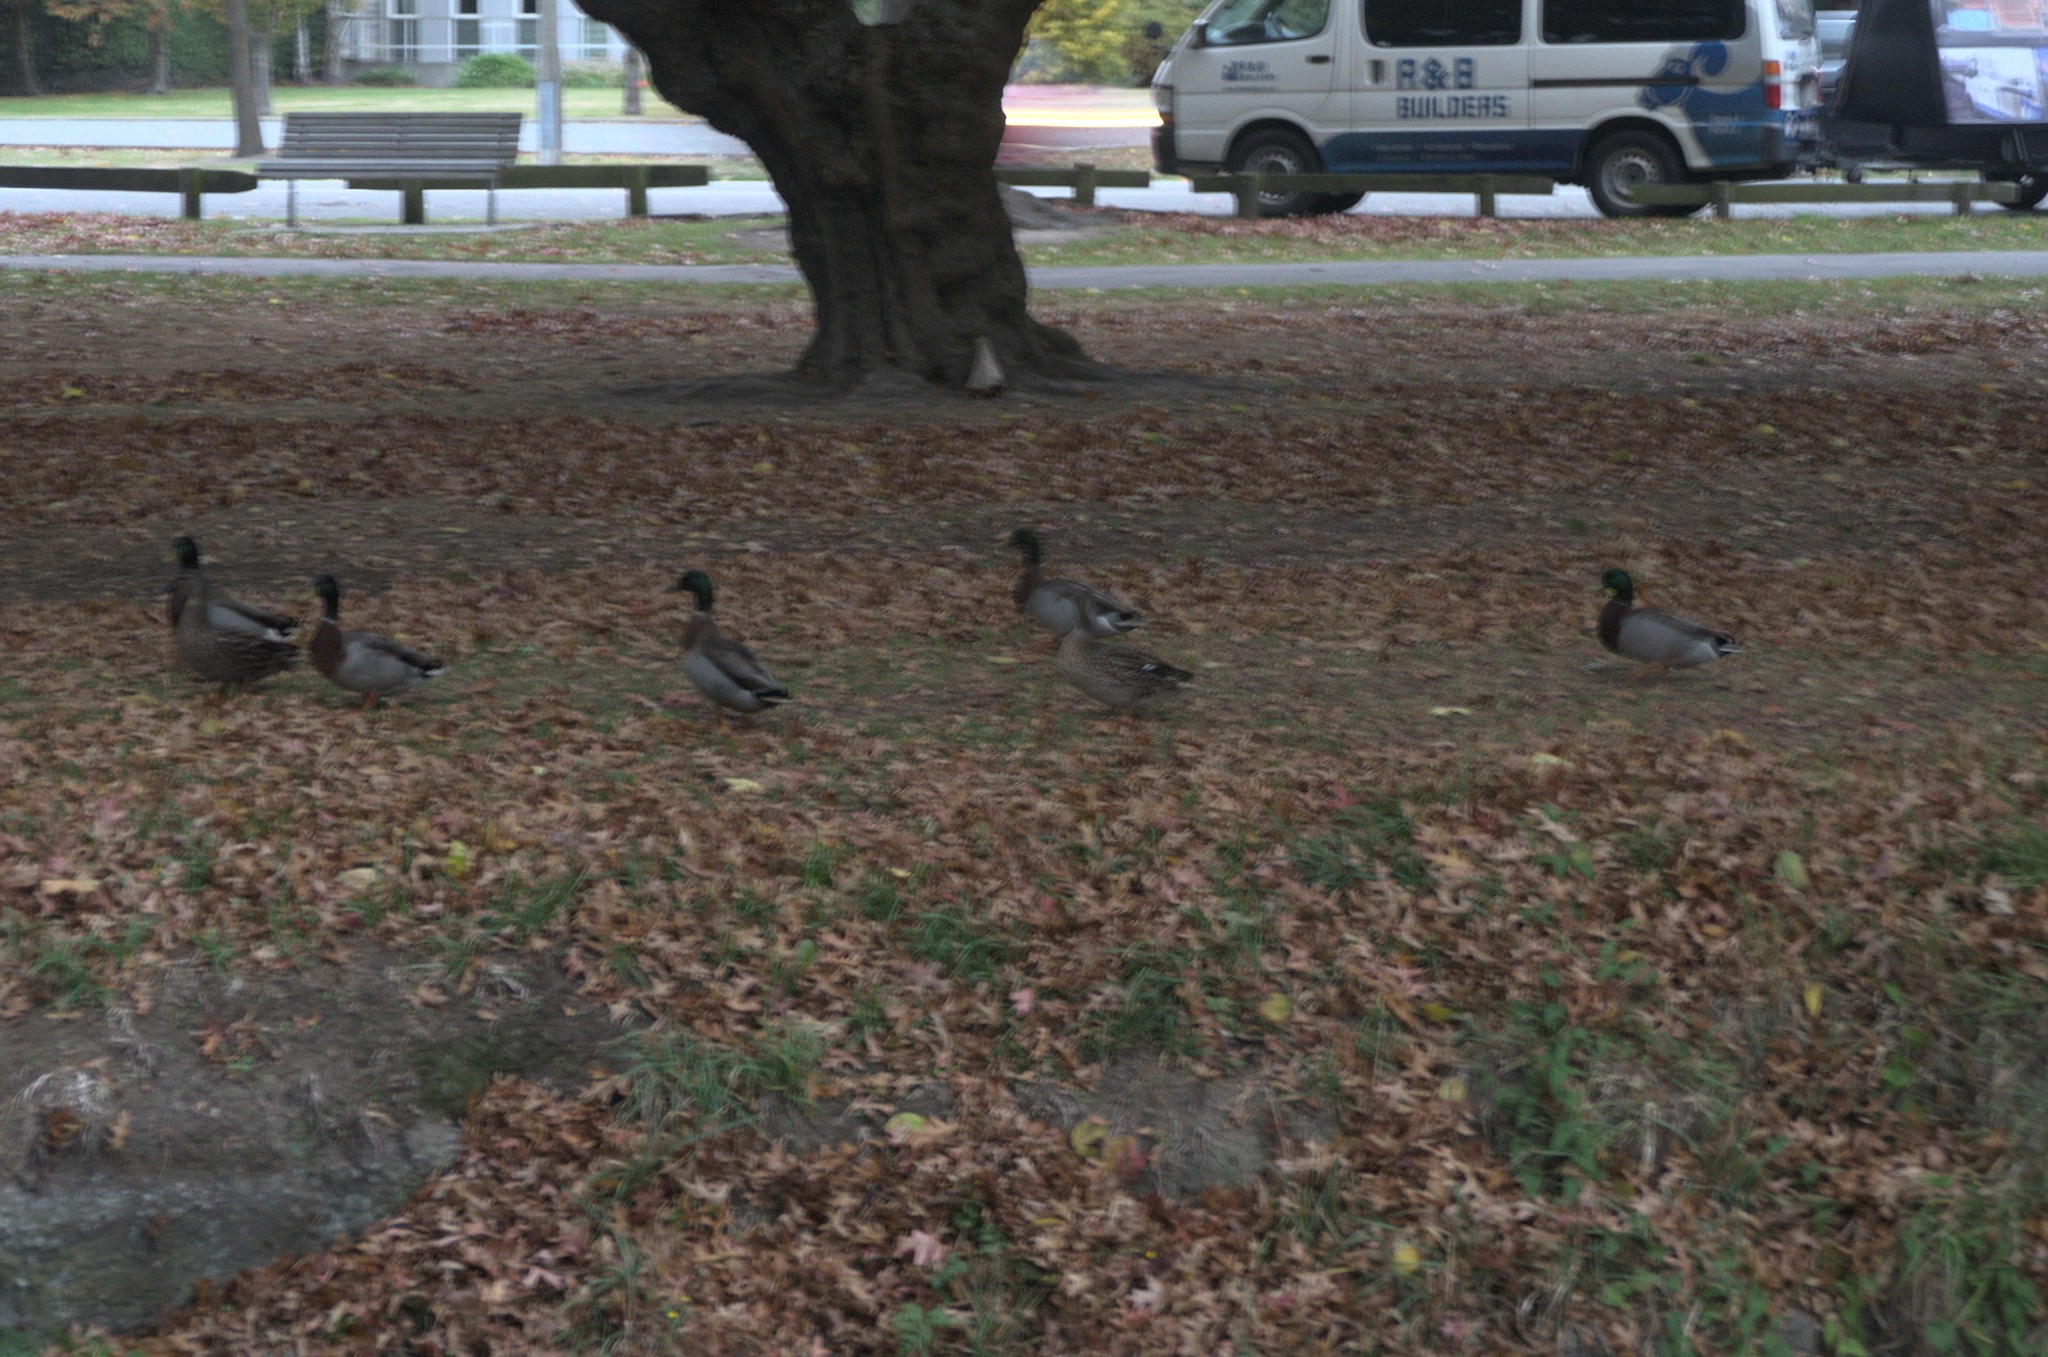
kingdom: Animalia
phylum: Chordata
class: Aves
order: Anseriformes
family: Anatidae
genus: Anas
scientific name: Anas platyrhynchos
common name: Mallard
